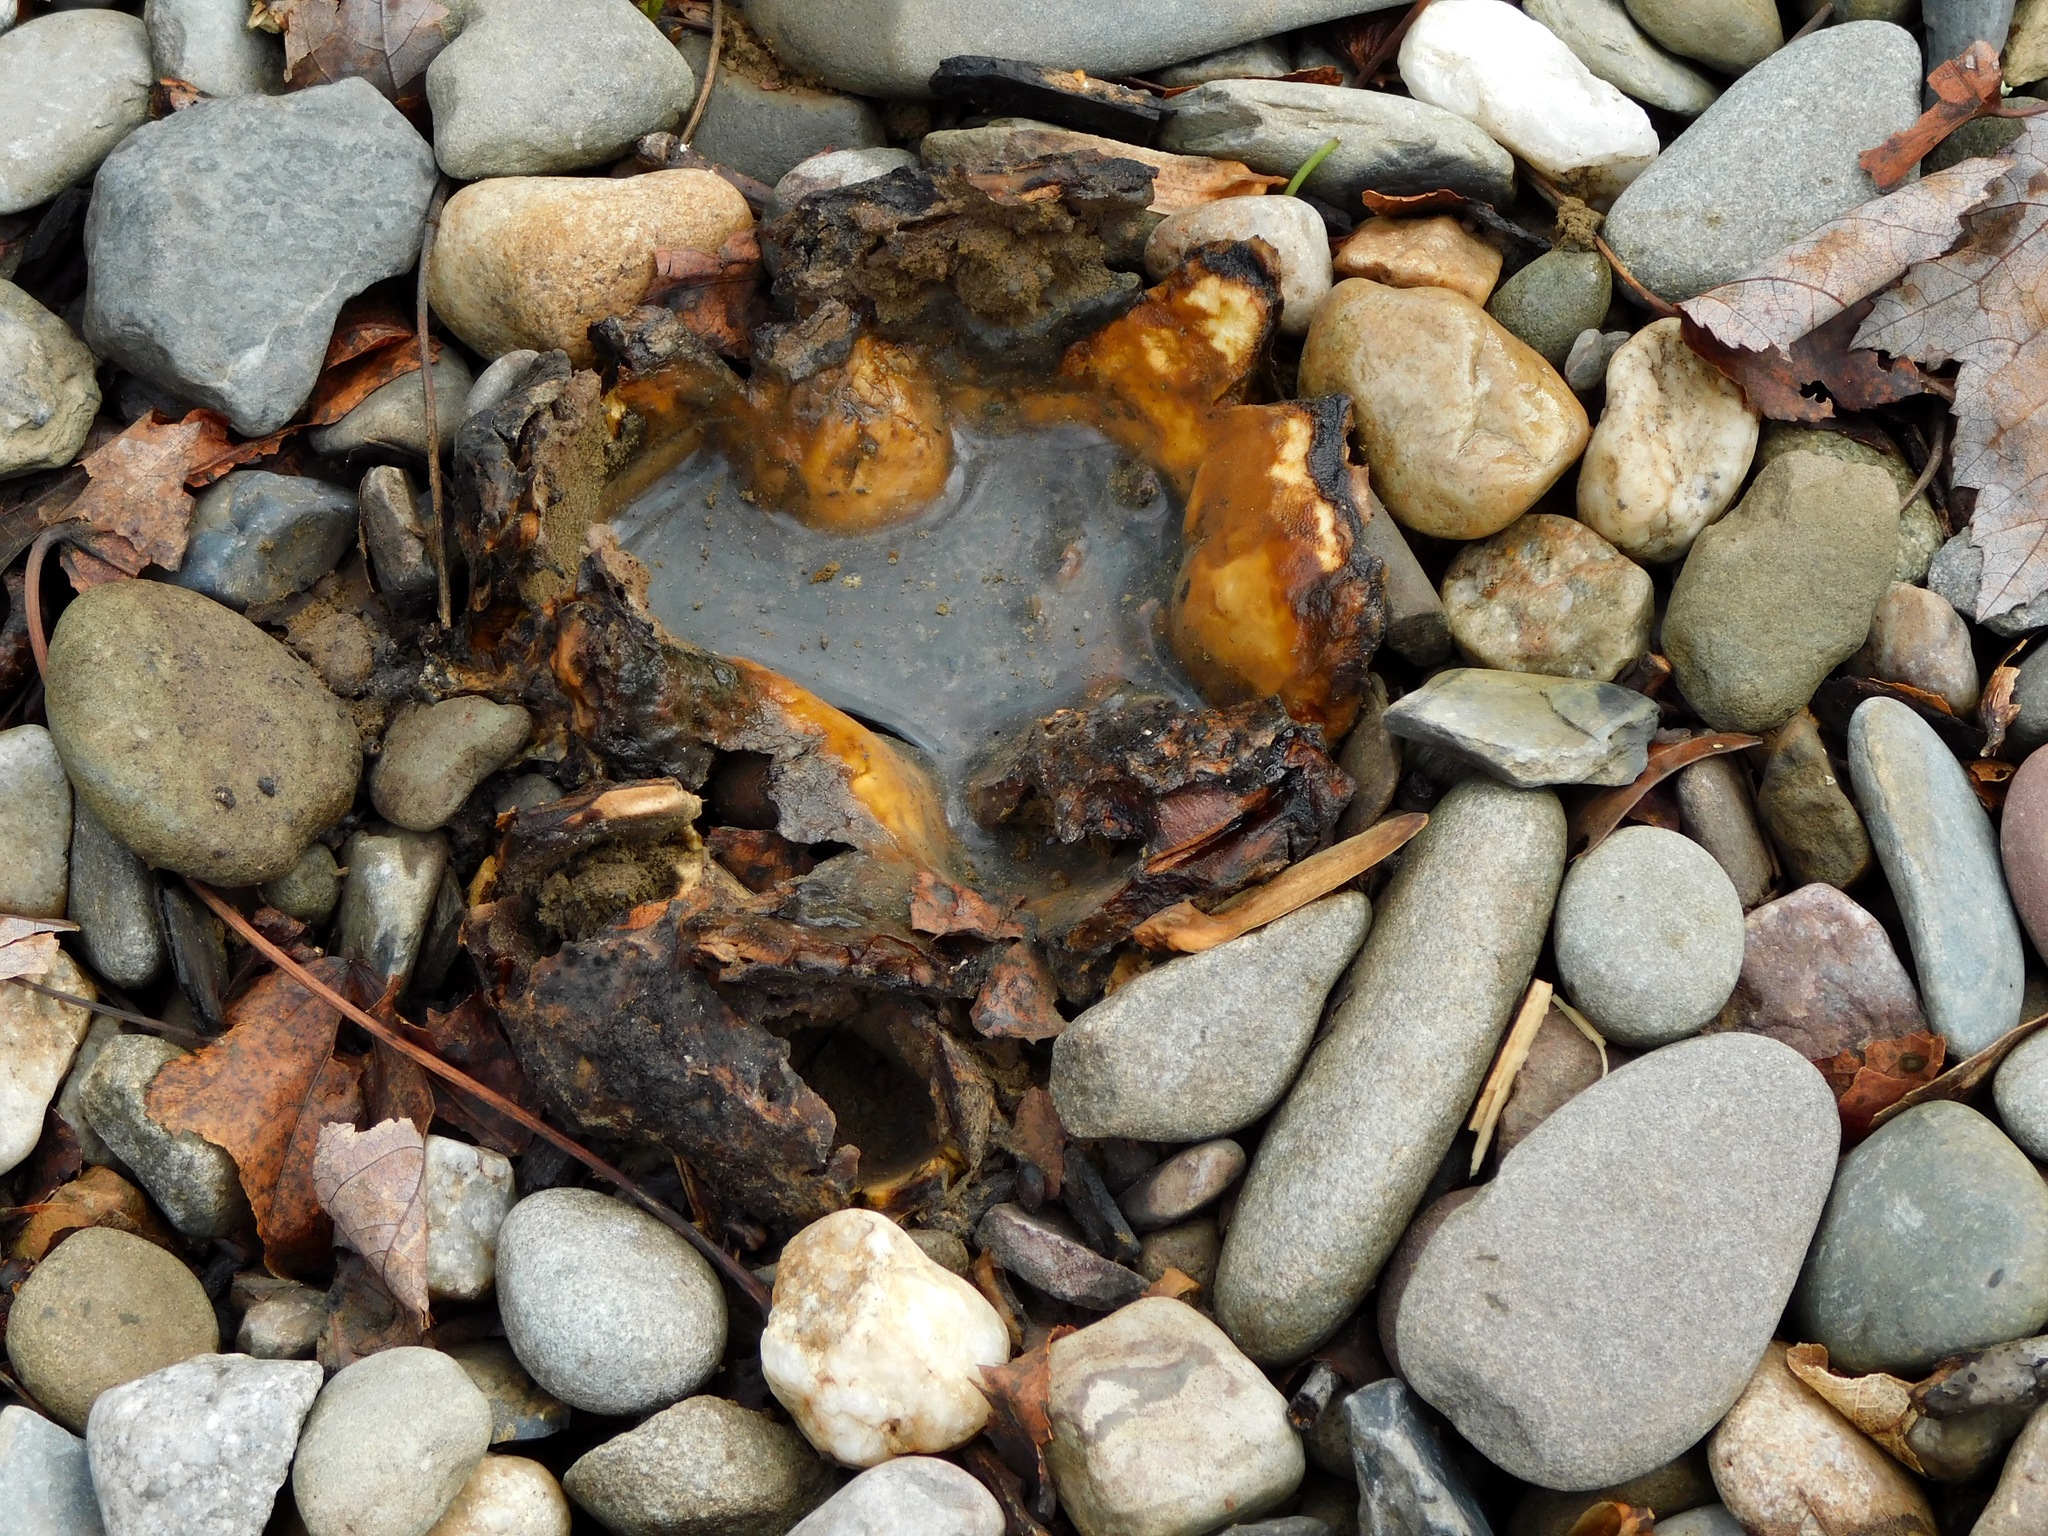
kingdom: Fungi
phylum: Basidiomycota
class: Agaricomycetes
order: Boletales
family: Sclerodermataceae
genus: Scleroderma
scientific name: Scleroderma polyrhizum
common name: Many-rooted earthball
